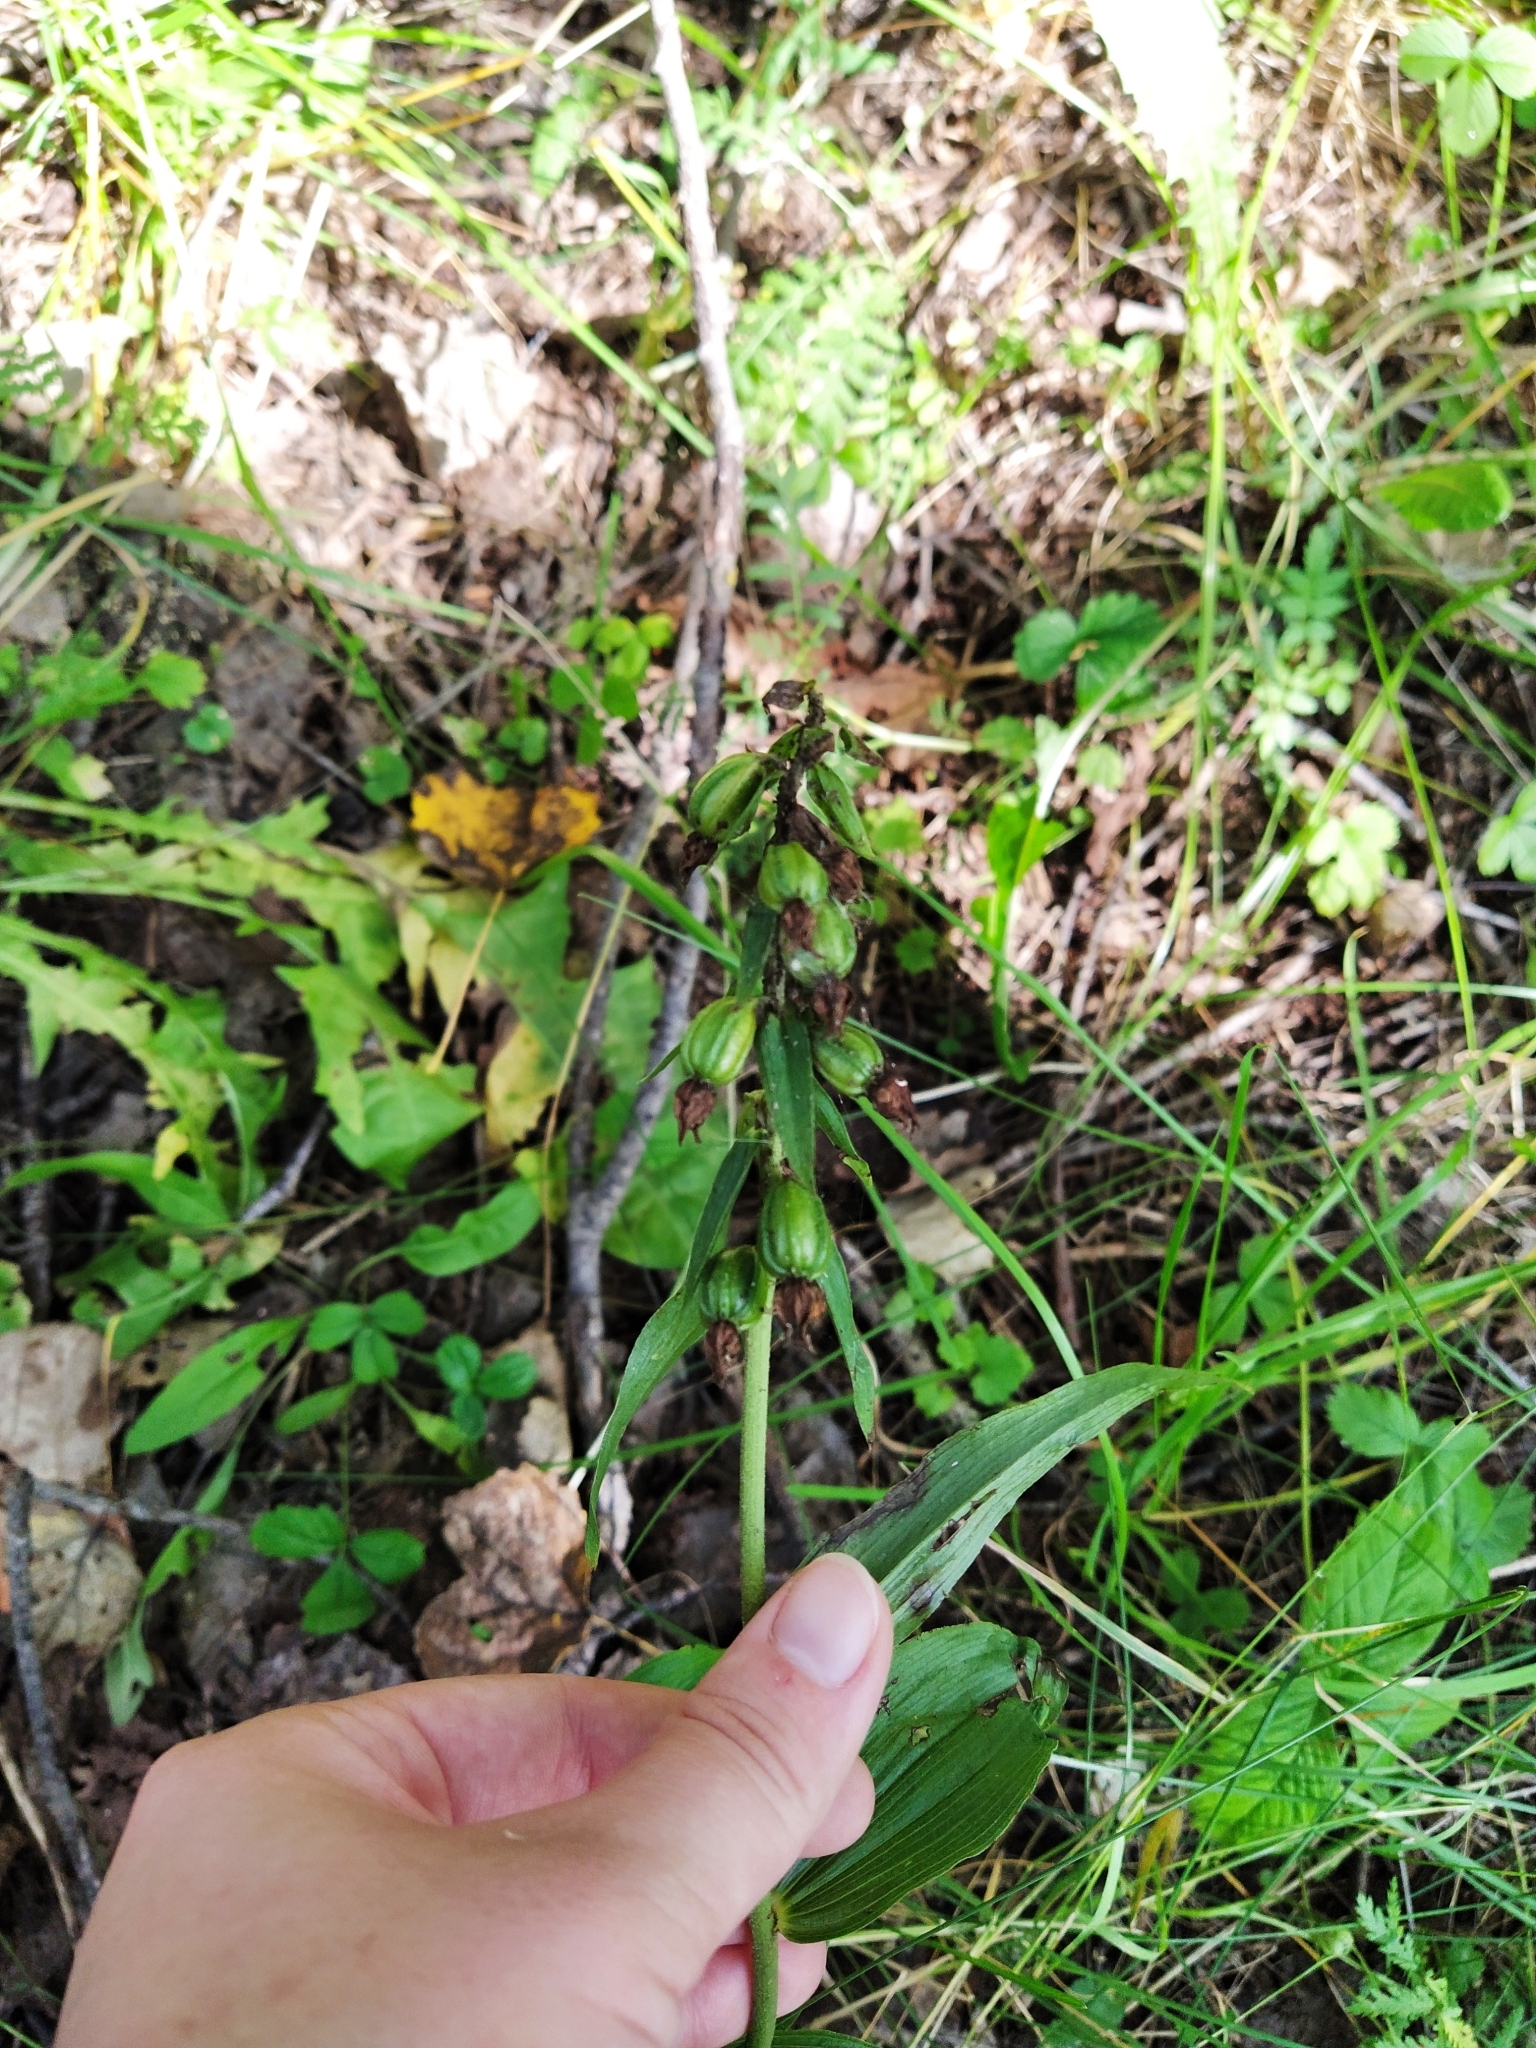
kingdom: Plantae
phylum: Tracheophyta
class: Liliopsida
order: Asparagales
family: Orchidaceae
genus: Epipactis
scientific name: Epipactis helleborine
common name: Broad-leaved helleborine
